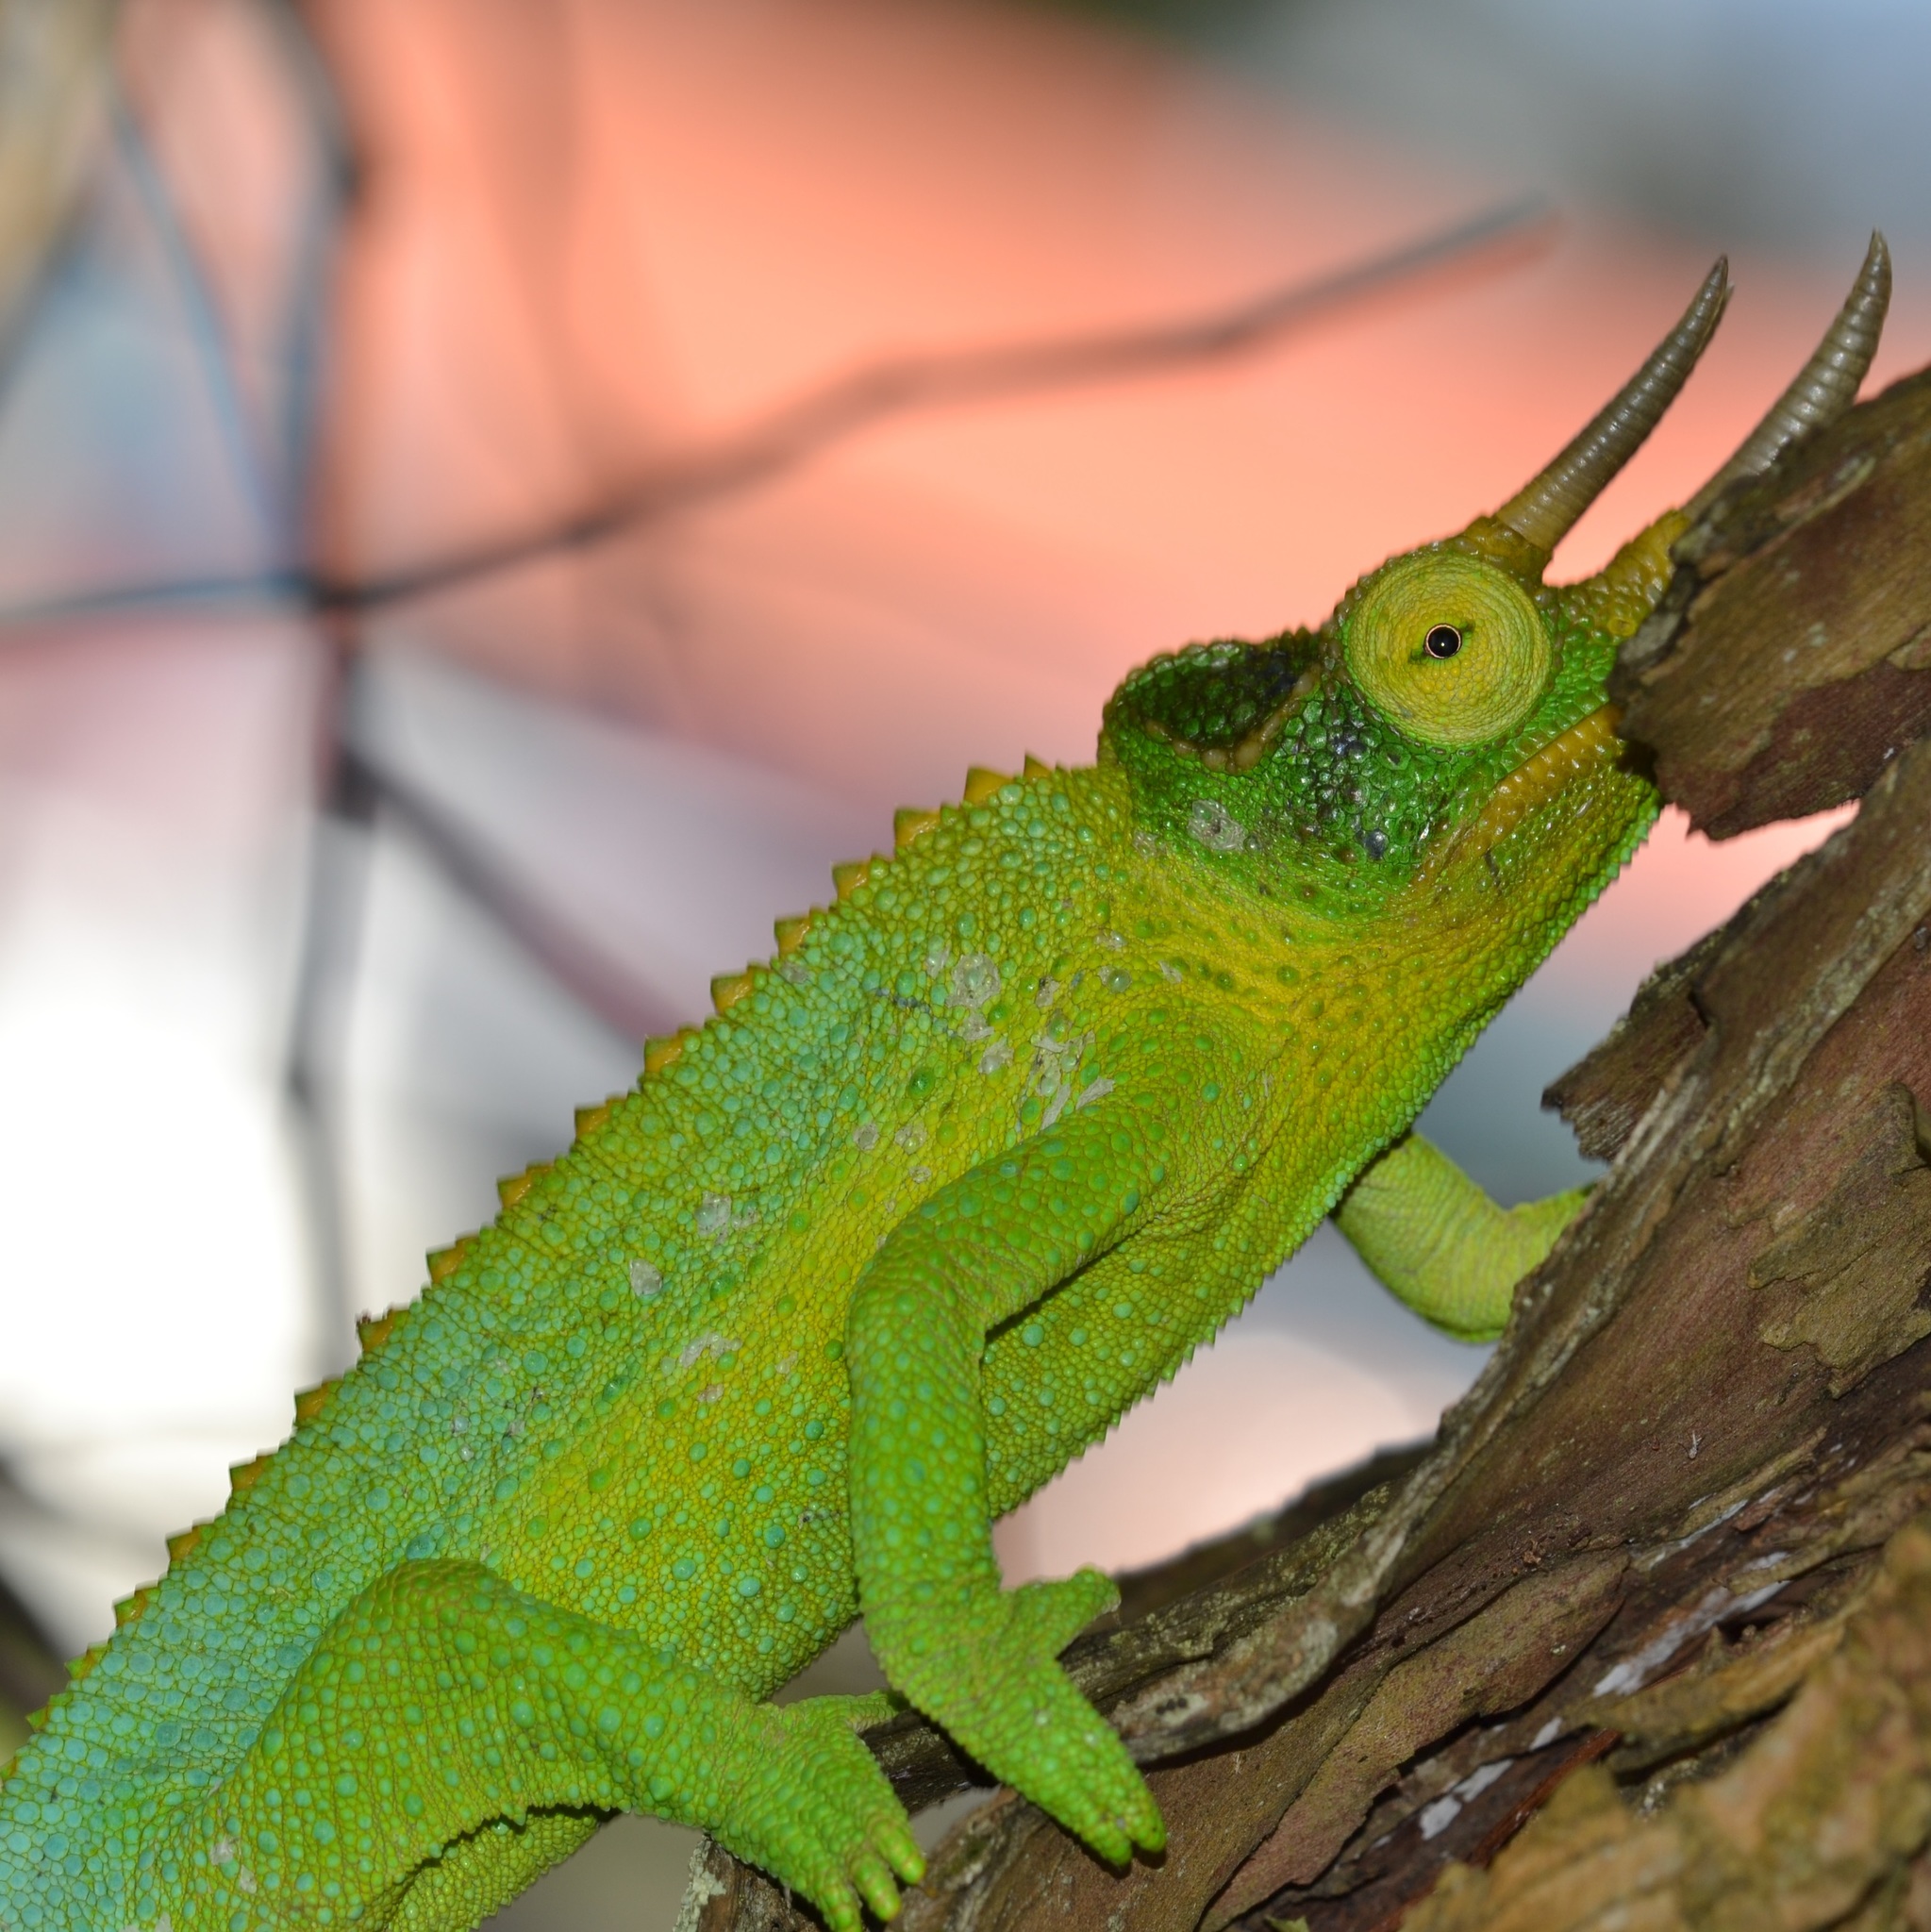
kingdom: Animalia
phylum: Chordata
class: Squamata
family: Chamaeleonidae
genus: Trioceros
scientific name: Trioceros jacksonii
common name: Jackson's chameleon
